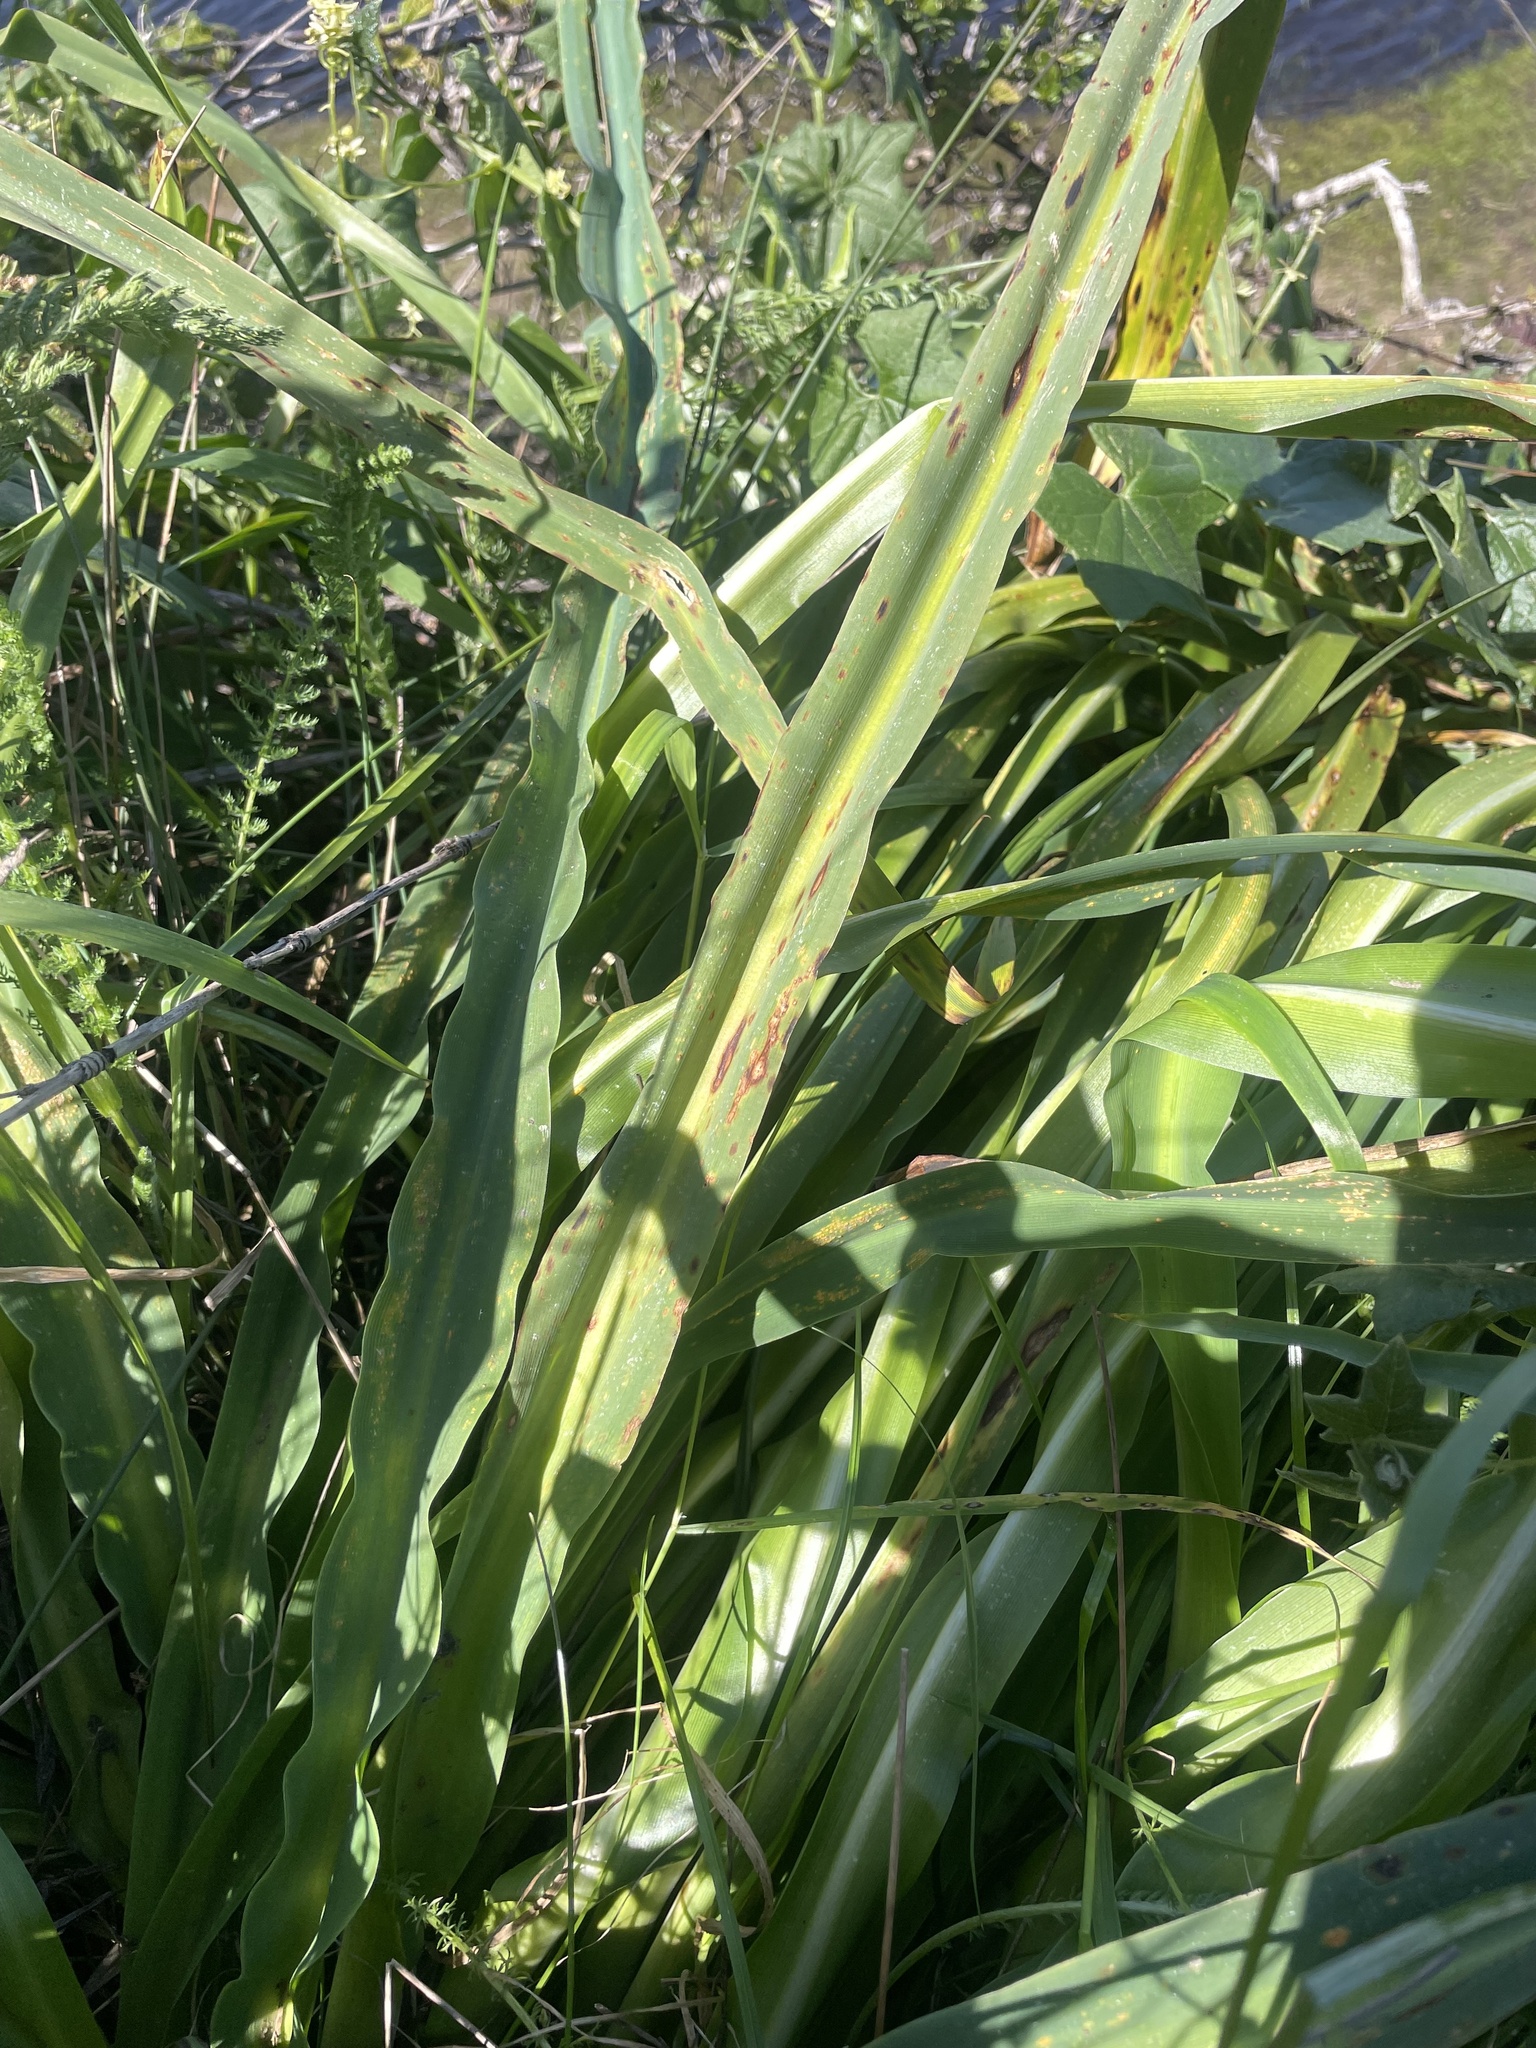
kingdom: Plantae
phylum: Tracheophyta
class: Liliopsida
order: Asparagales
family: Asparagaceae
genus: Chlorogalum
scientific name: Chlorogalum pomeridianum
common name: Amole
